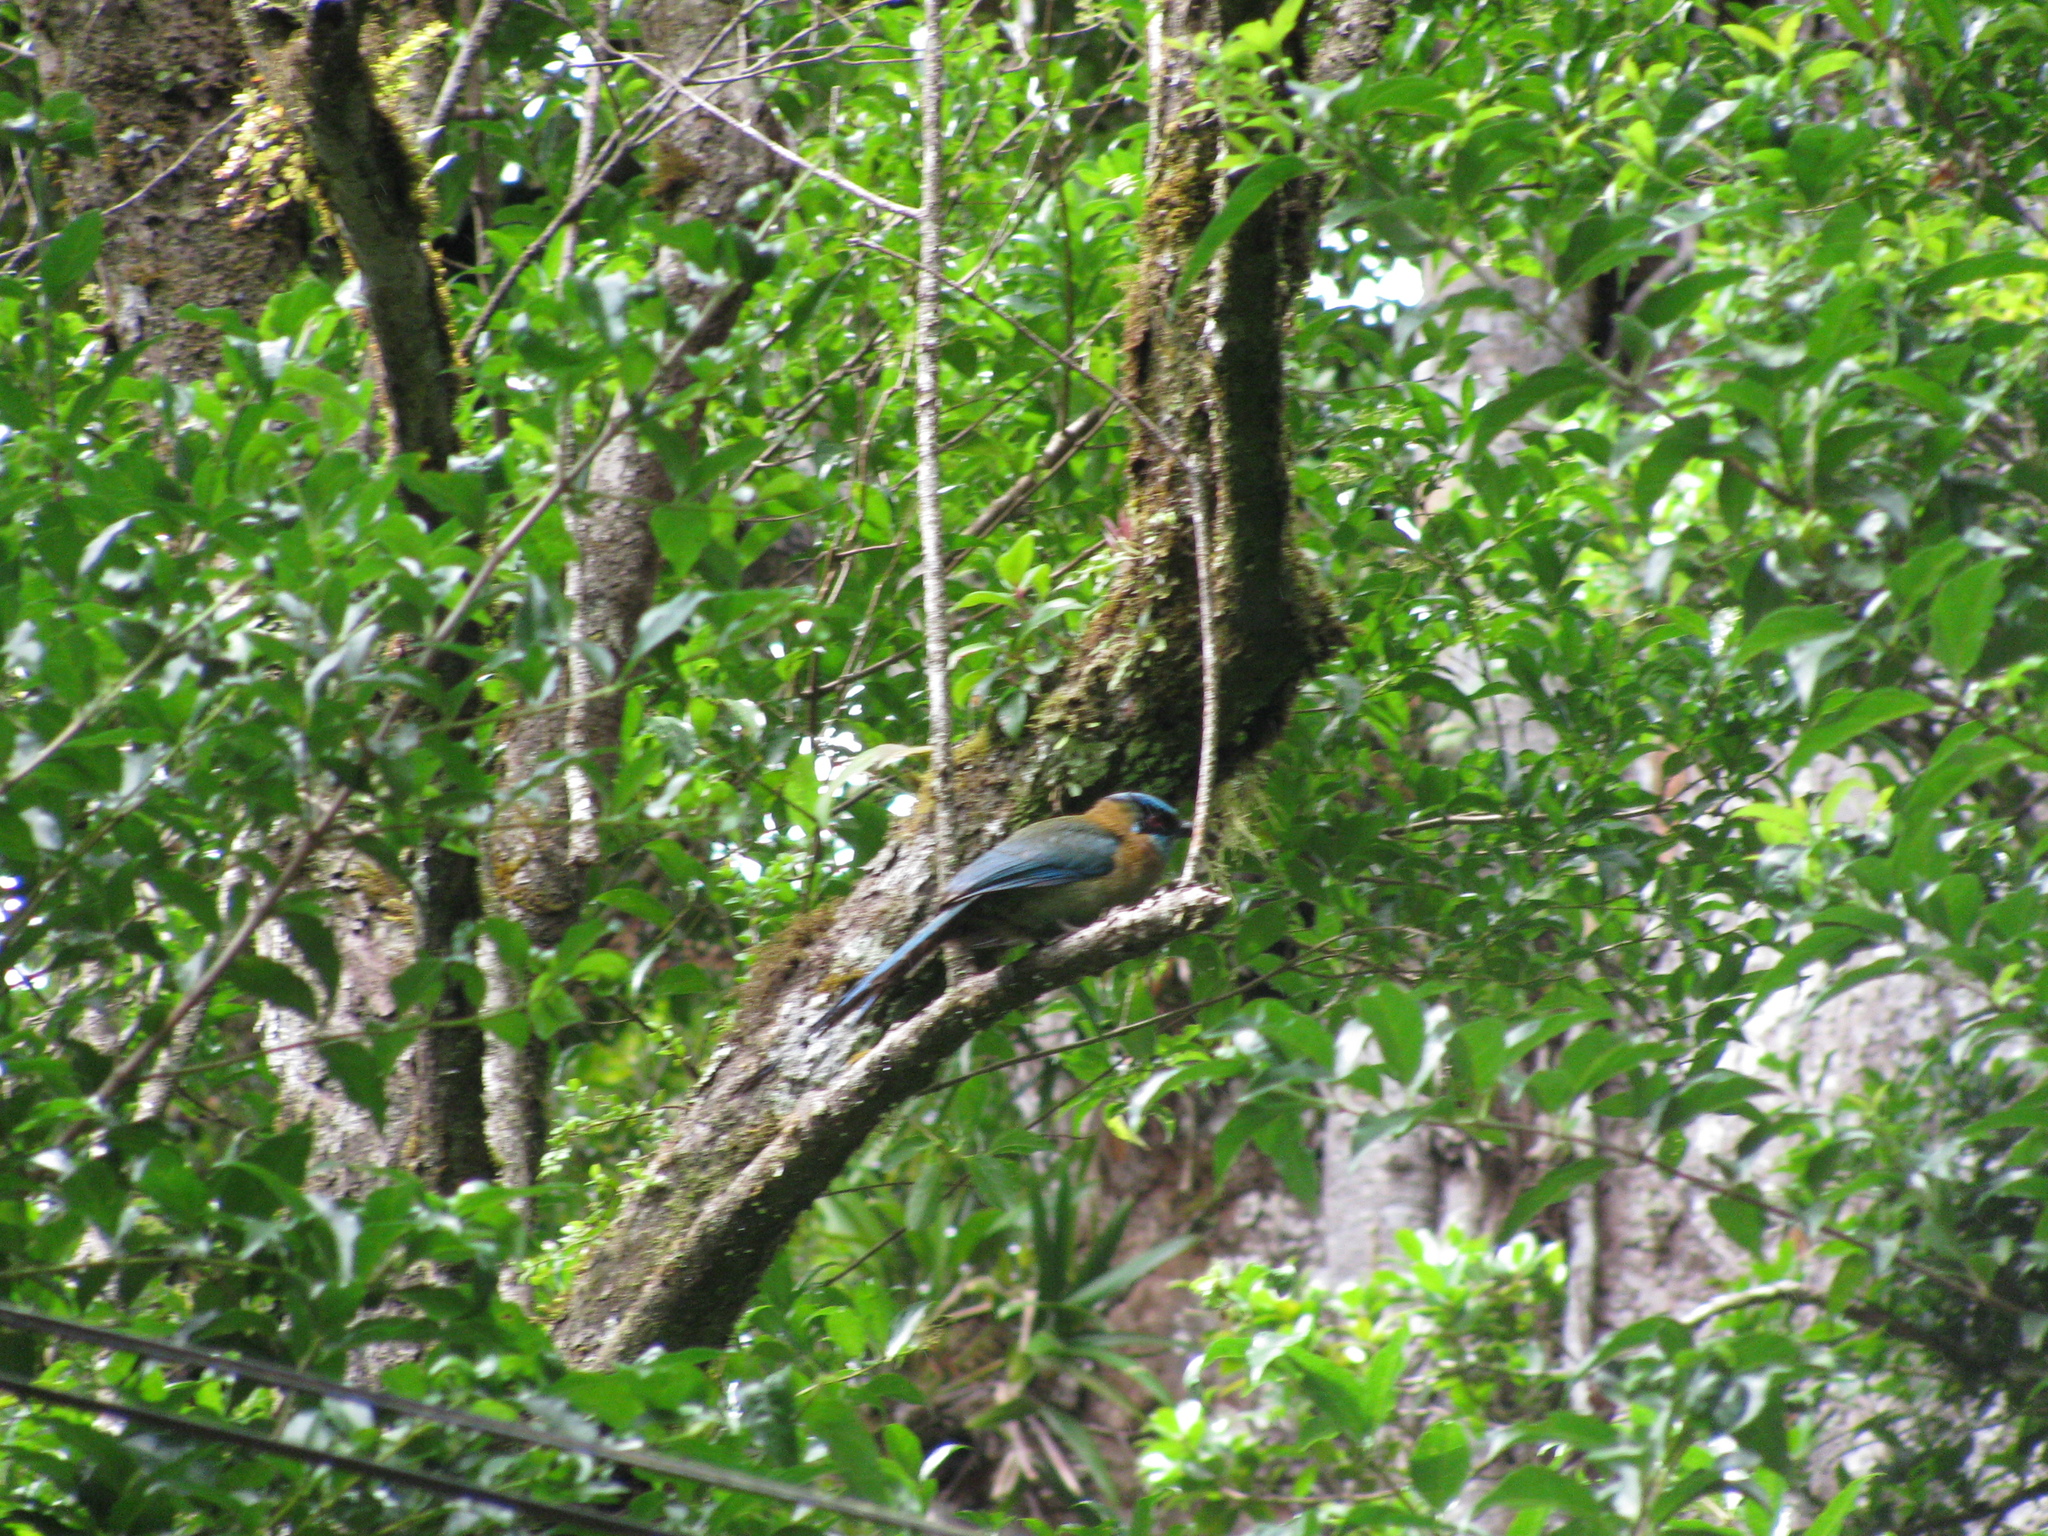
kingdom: Animalia
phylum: Chordata
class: Aves
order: Coraciiformes
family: Momotidae
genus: Momotus
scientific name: Momotus lessonii
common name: Lesson's motmot
